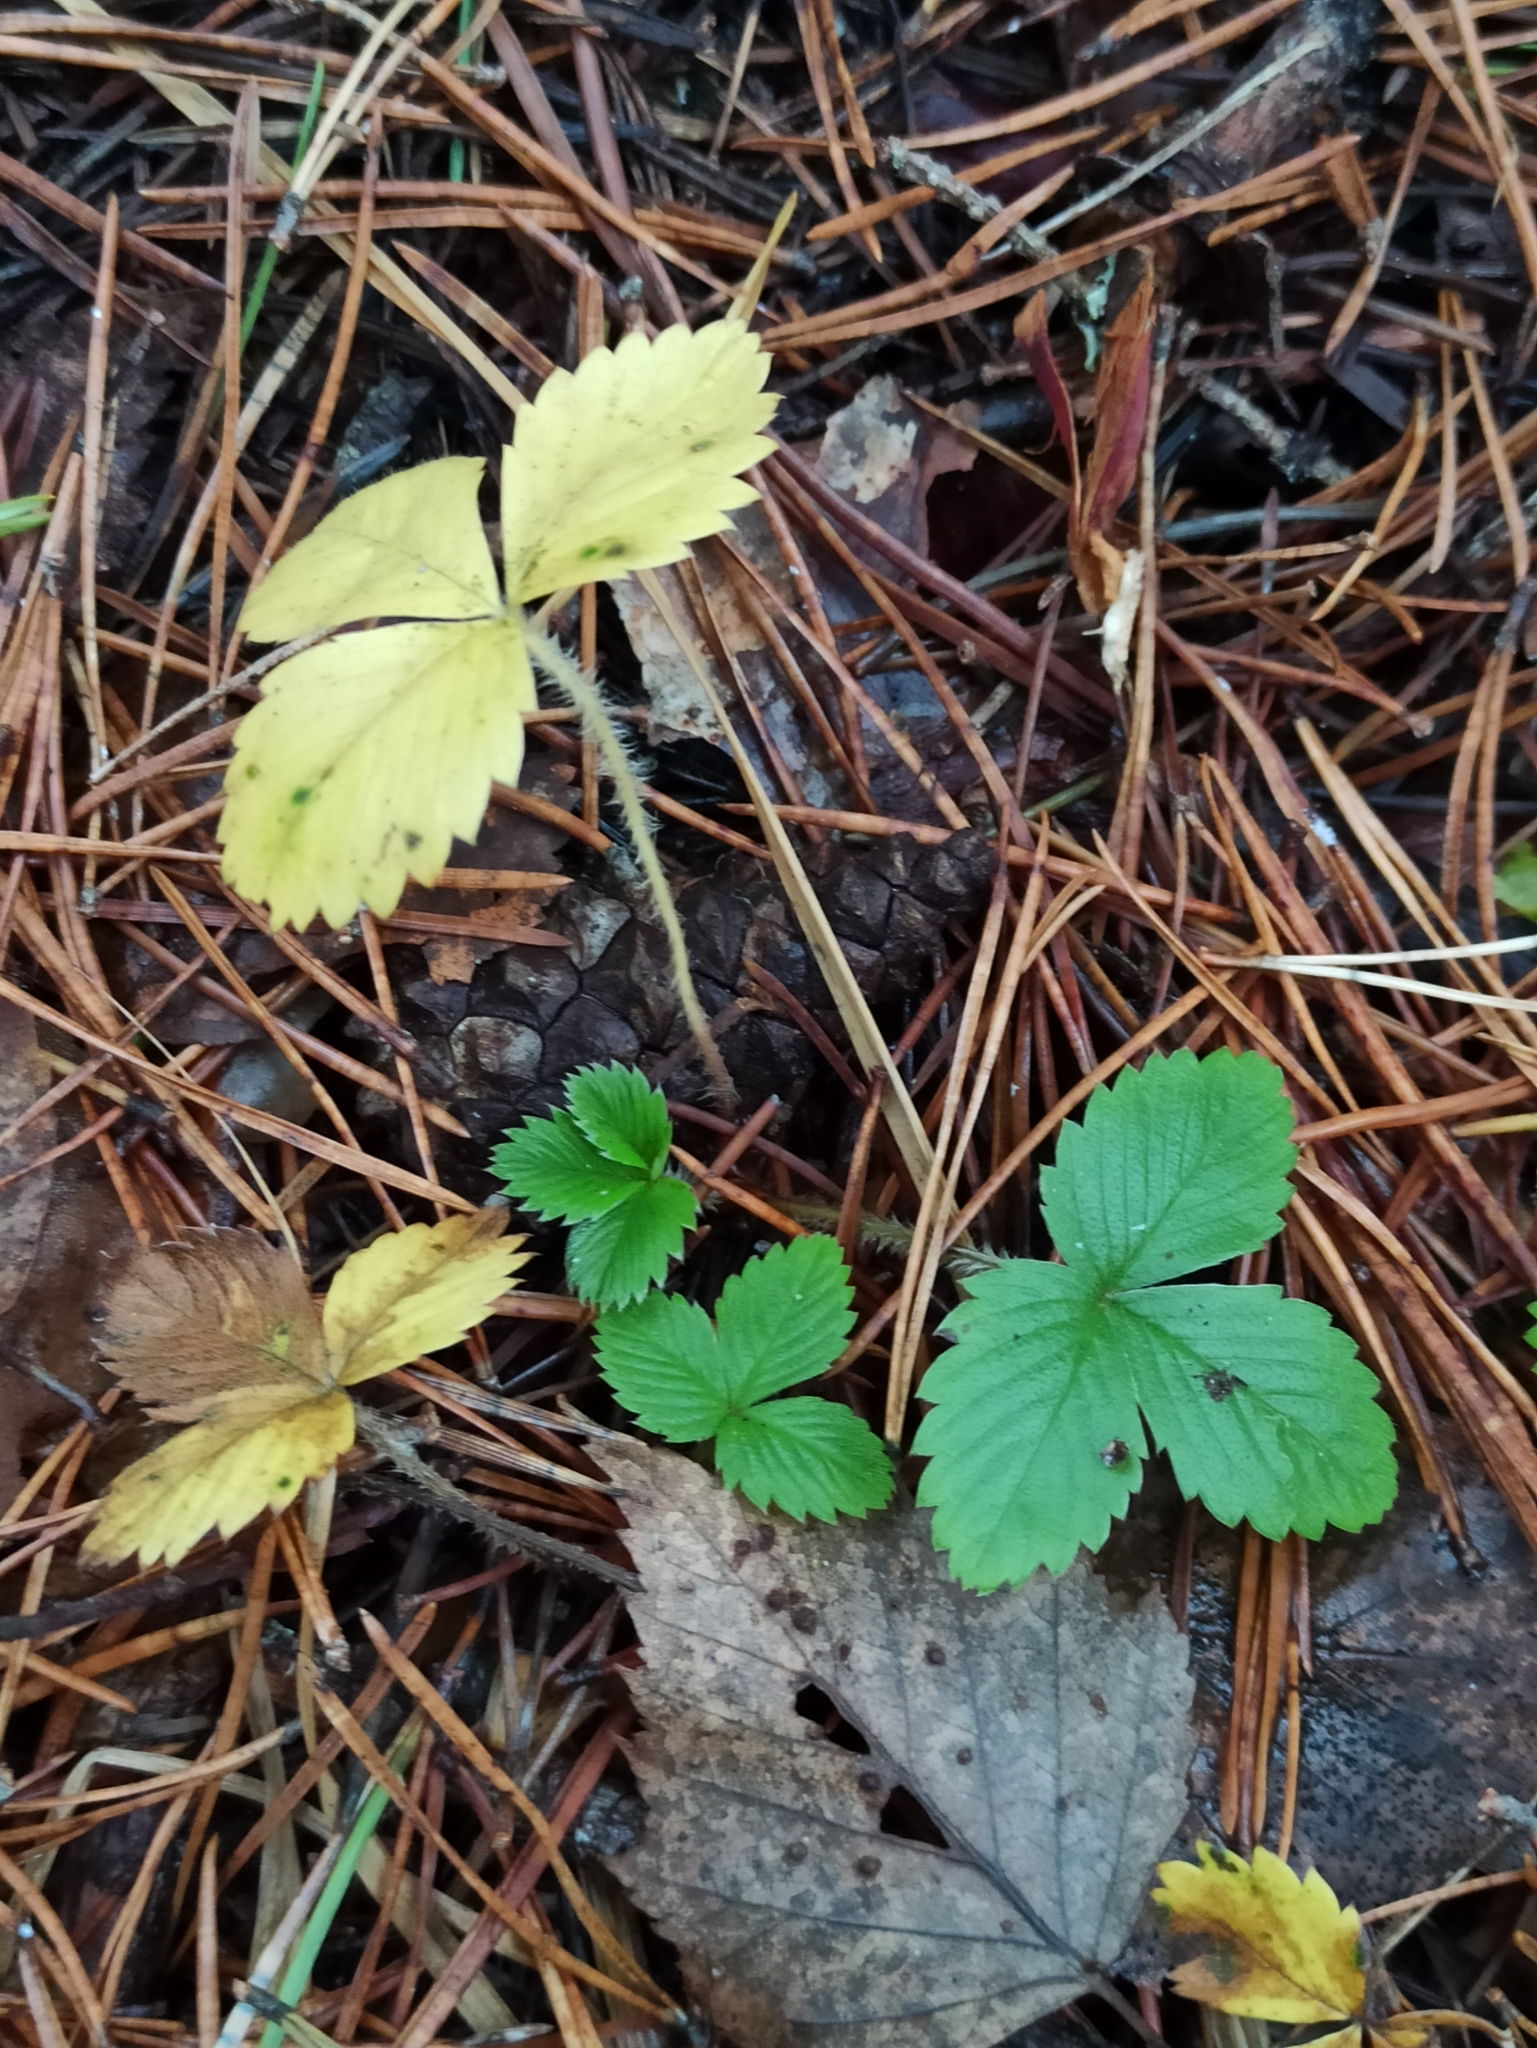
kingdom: Plantae
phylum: Tracheophyta
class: Magnoliopsida
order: Rosales
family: Rosaceae
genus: Fragaria
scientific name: Fragaria vesca
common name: Wild strawberry
